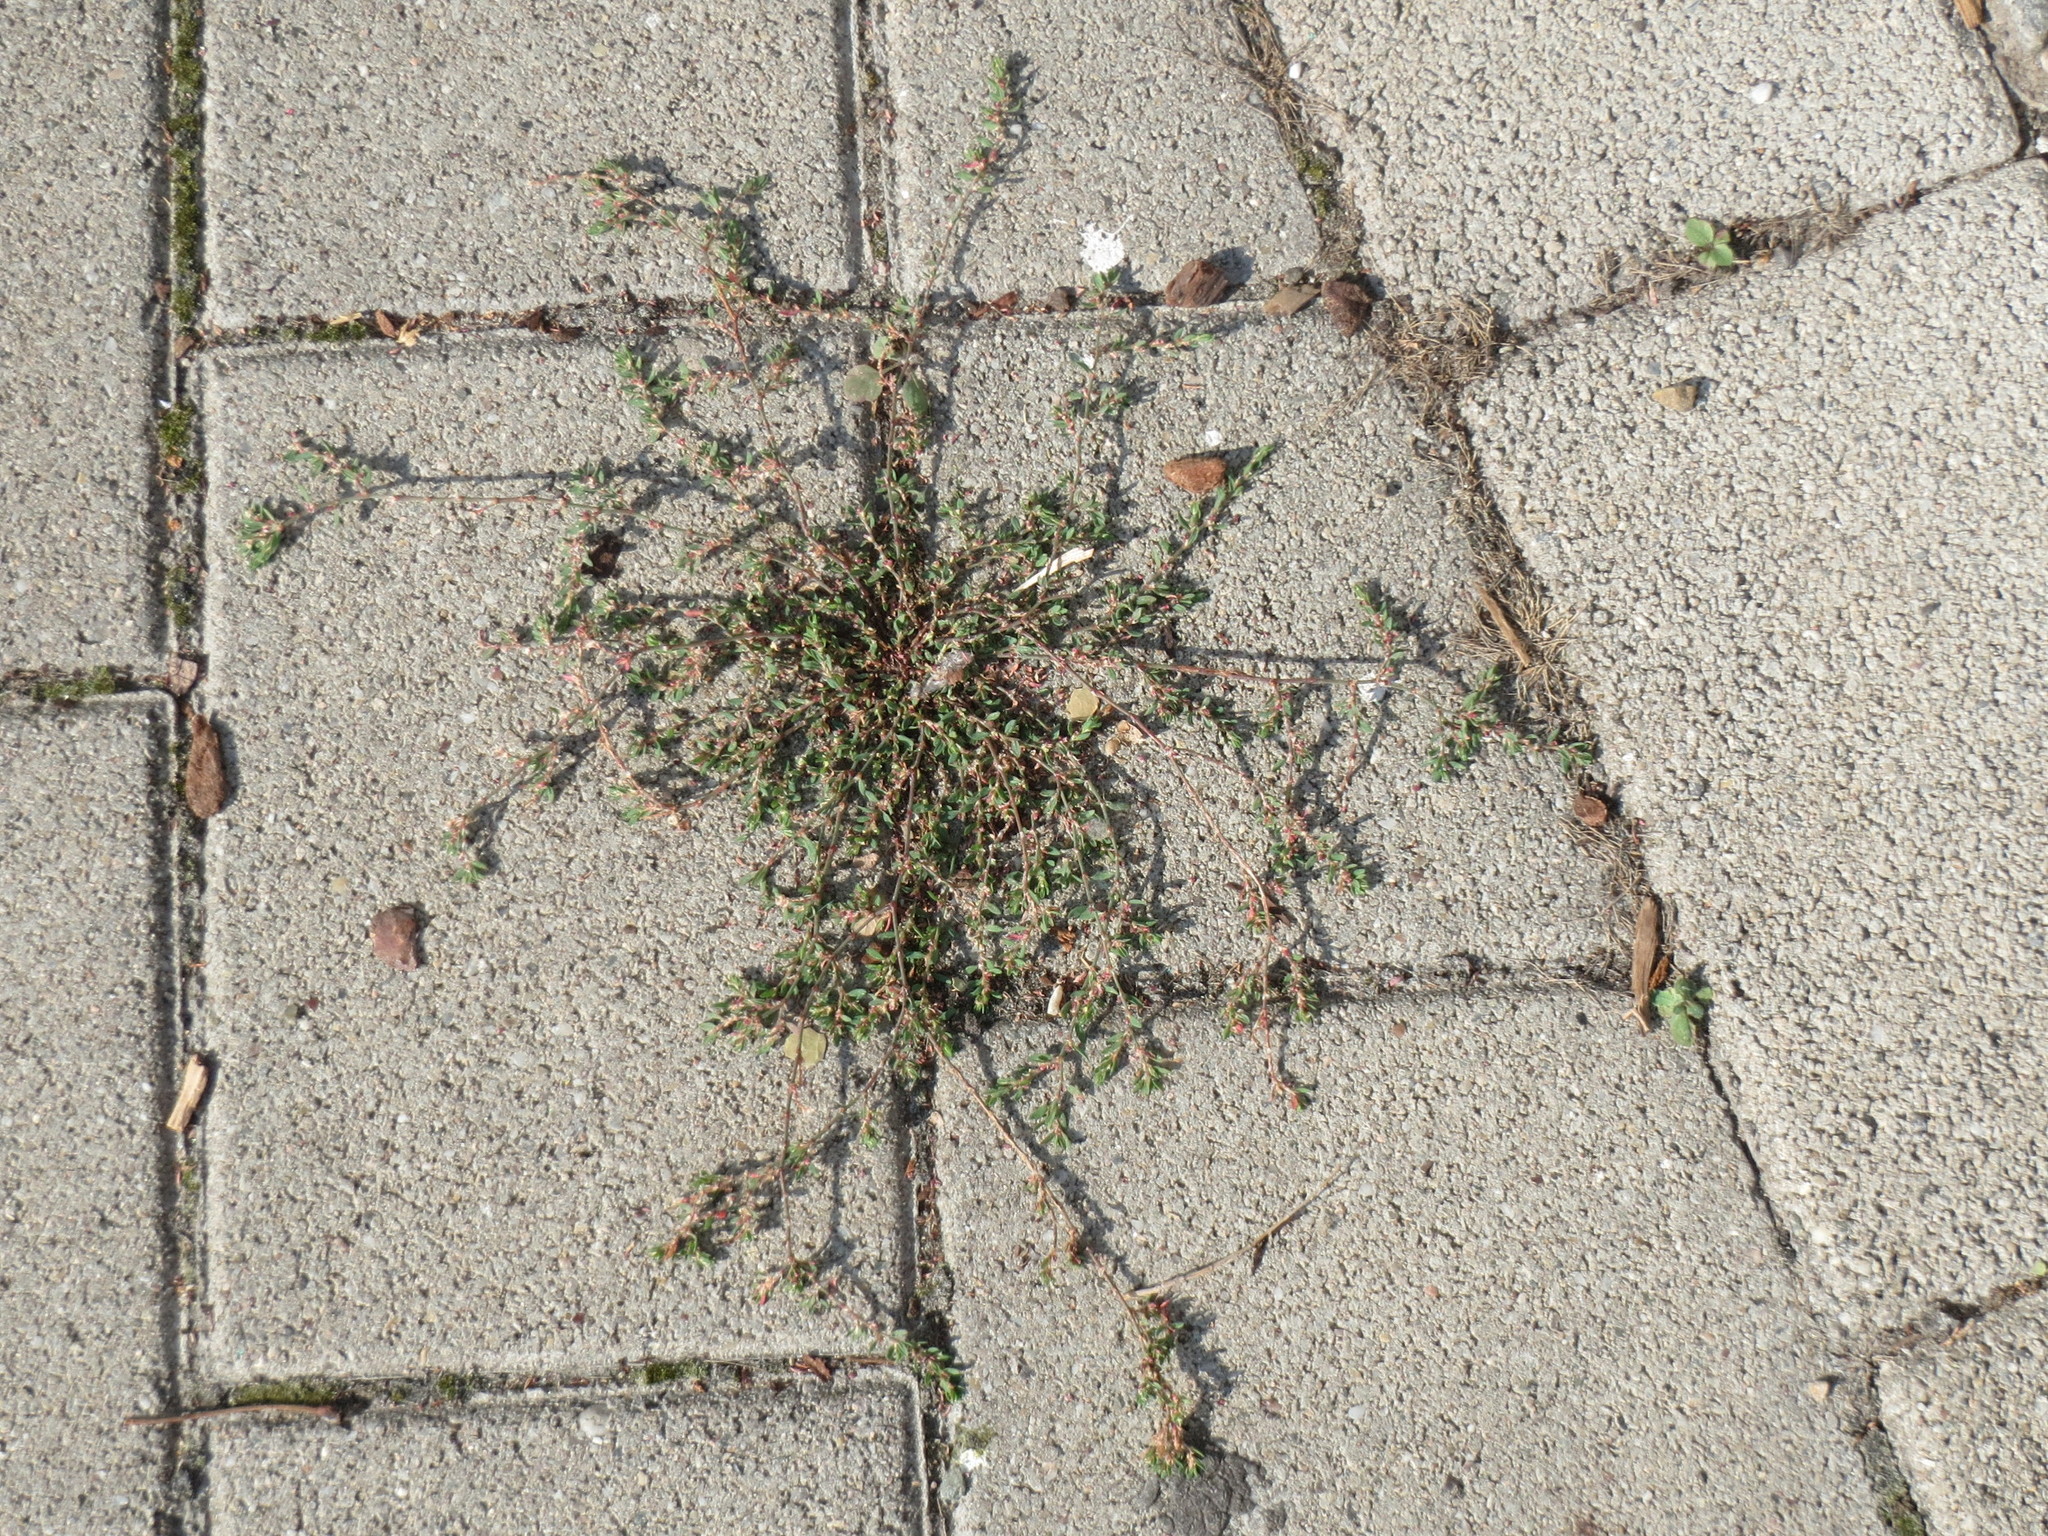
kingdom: Plantae
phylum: Tracheophyta
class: Magnoliopsida
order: Caryophyllales
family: Polygonaceae
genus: Polygonum
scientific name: Polygonum aviculare
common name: Prostrate knotweed
